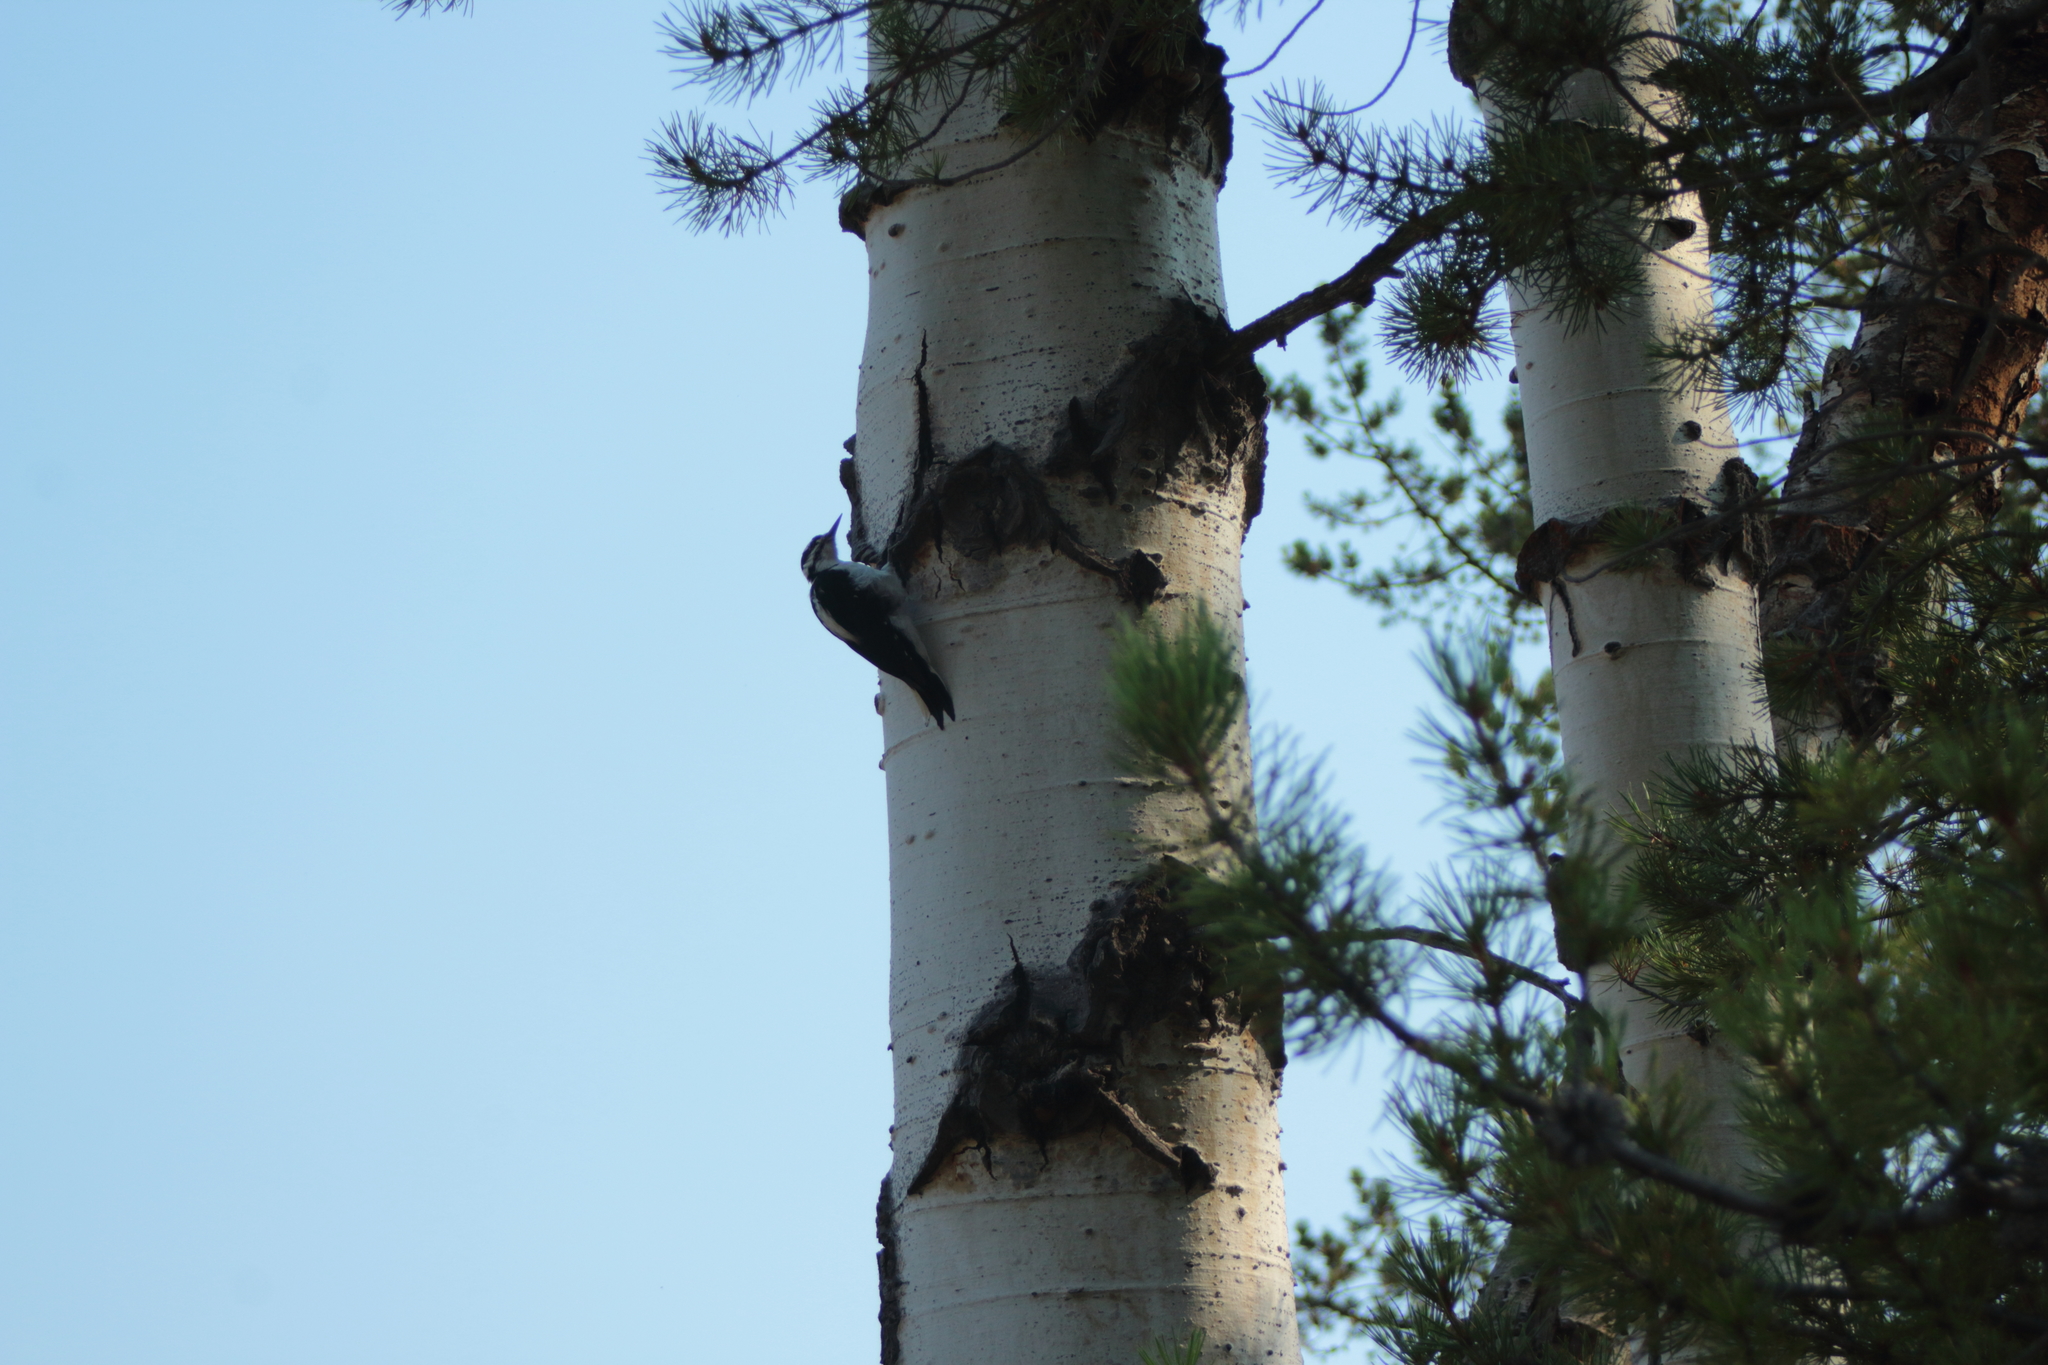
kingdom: Animalia
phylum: Chordata
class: Aves
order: Piciformes
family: Picidae
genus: Leuconotopicus
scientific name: Leuconotopicus villosus
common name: Hairy woodpecker
